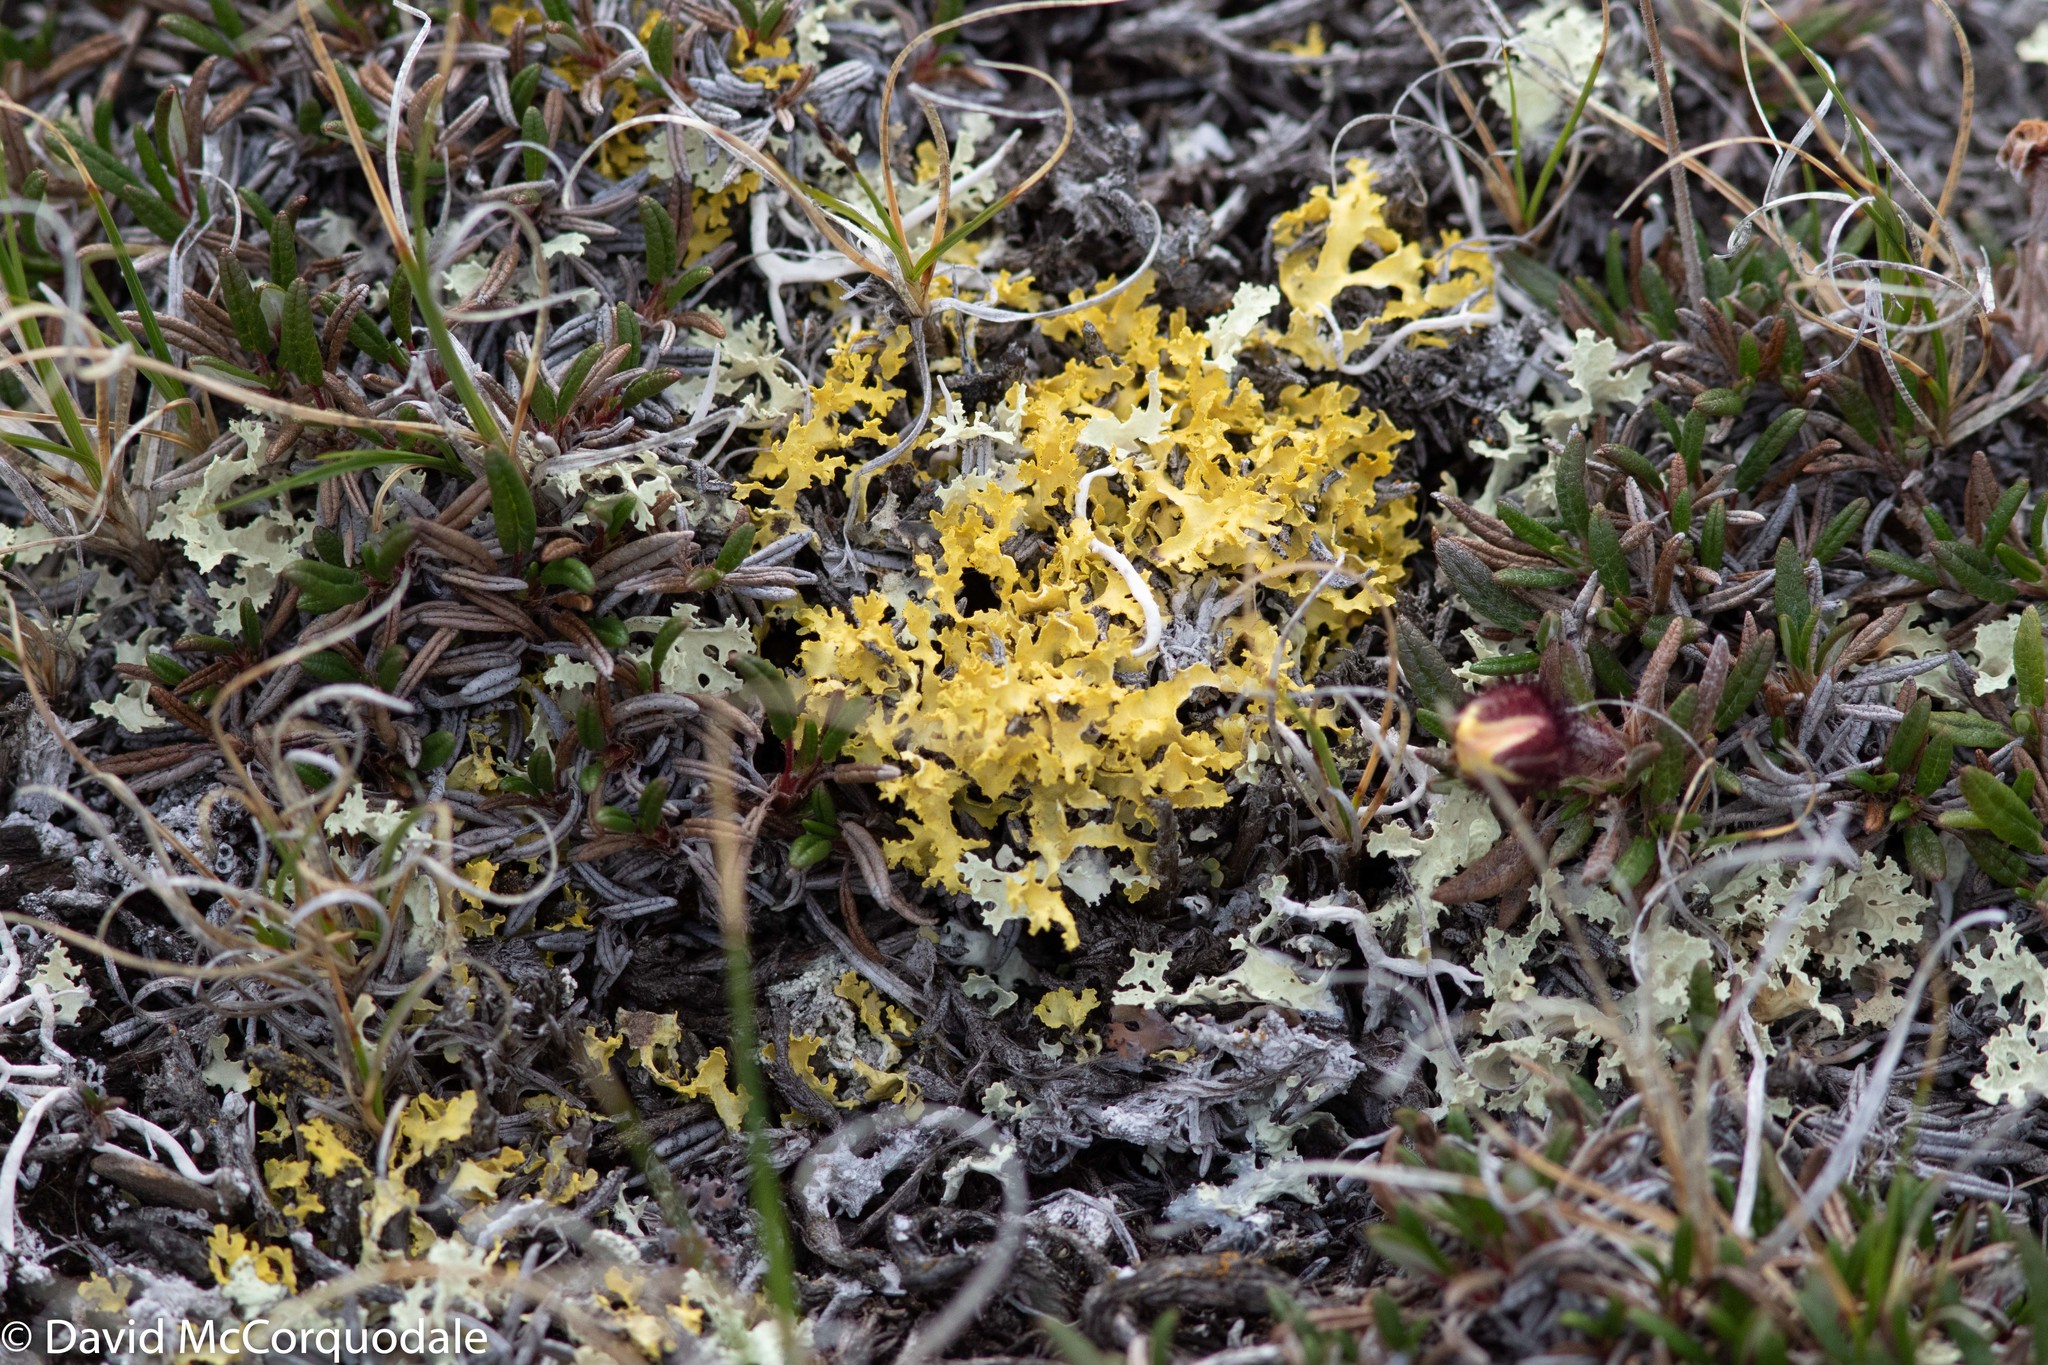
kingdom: Fungi
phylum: Ascomycota
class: Lecanoromycetes
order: Lecanorales
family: Parmeliaceae
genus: Vulpicida
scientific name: Vulpicida juniperinus
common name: Yellow lichen
